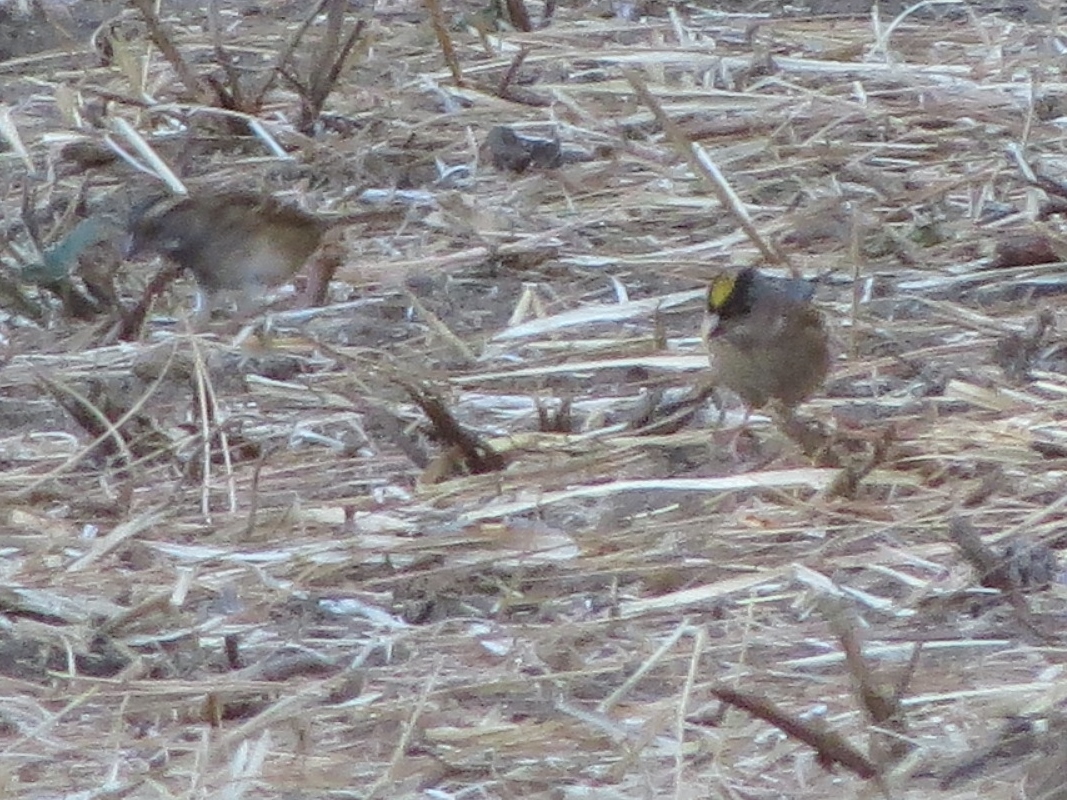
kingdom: Animalia
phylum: Chordata
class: Aves
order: Passeriformes
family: Passerellidae
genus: Zonotrichia
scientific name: Zonotrichia atricapilla
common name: Golden-crowned sparrow
